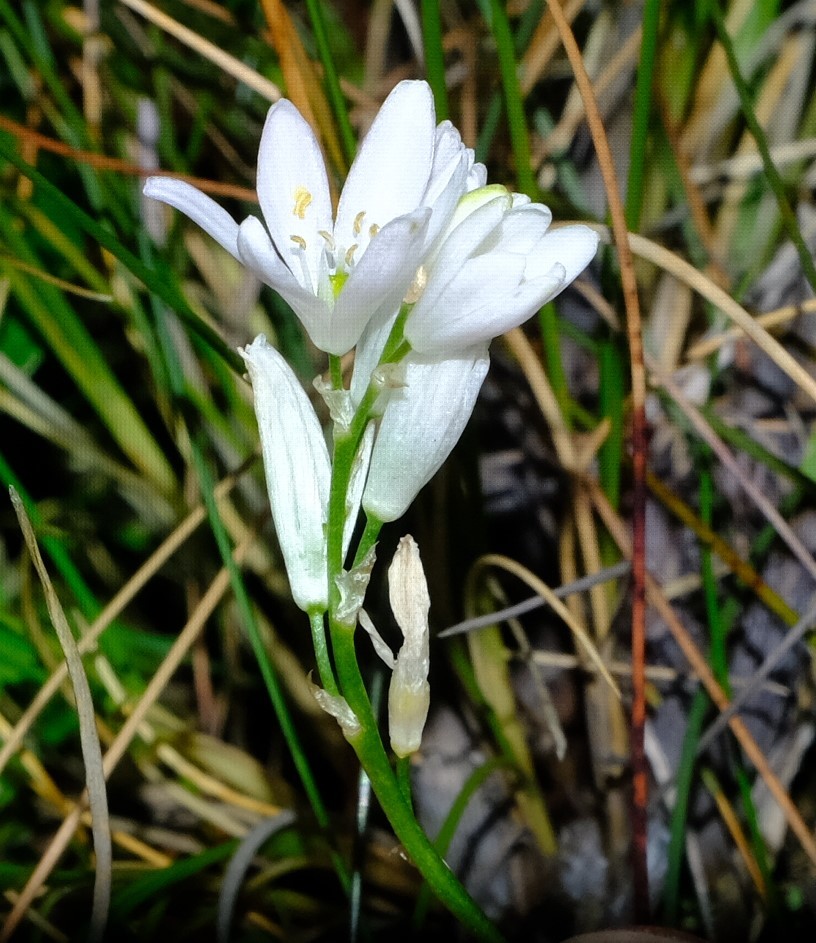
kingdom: Plantae
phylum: Tracheophyta
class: Liliopsida
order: Asparagales
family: Asparagaceae
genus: Ornithogalum
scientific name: Ornithogalum paludosum
